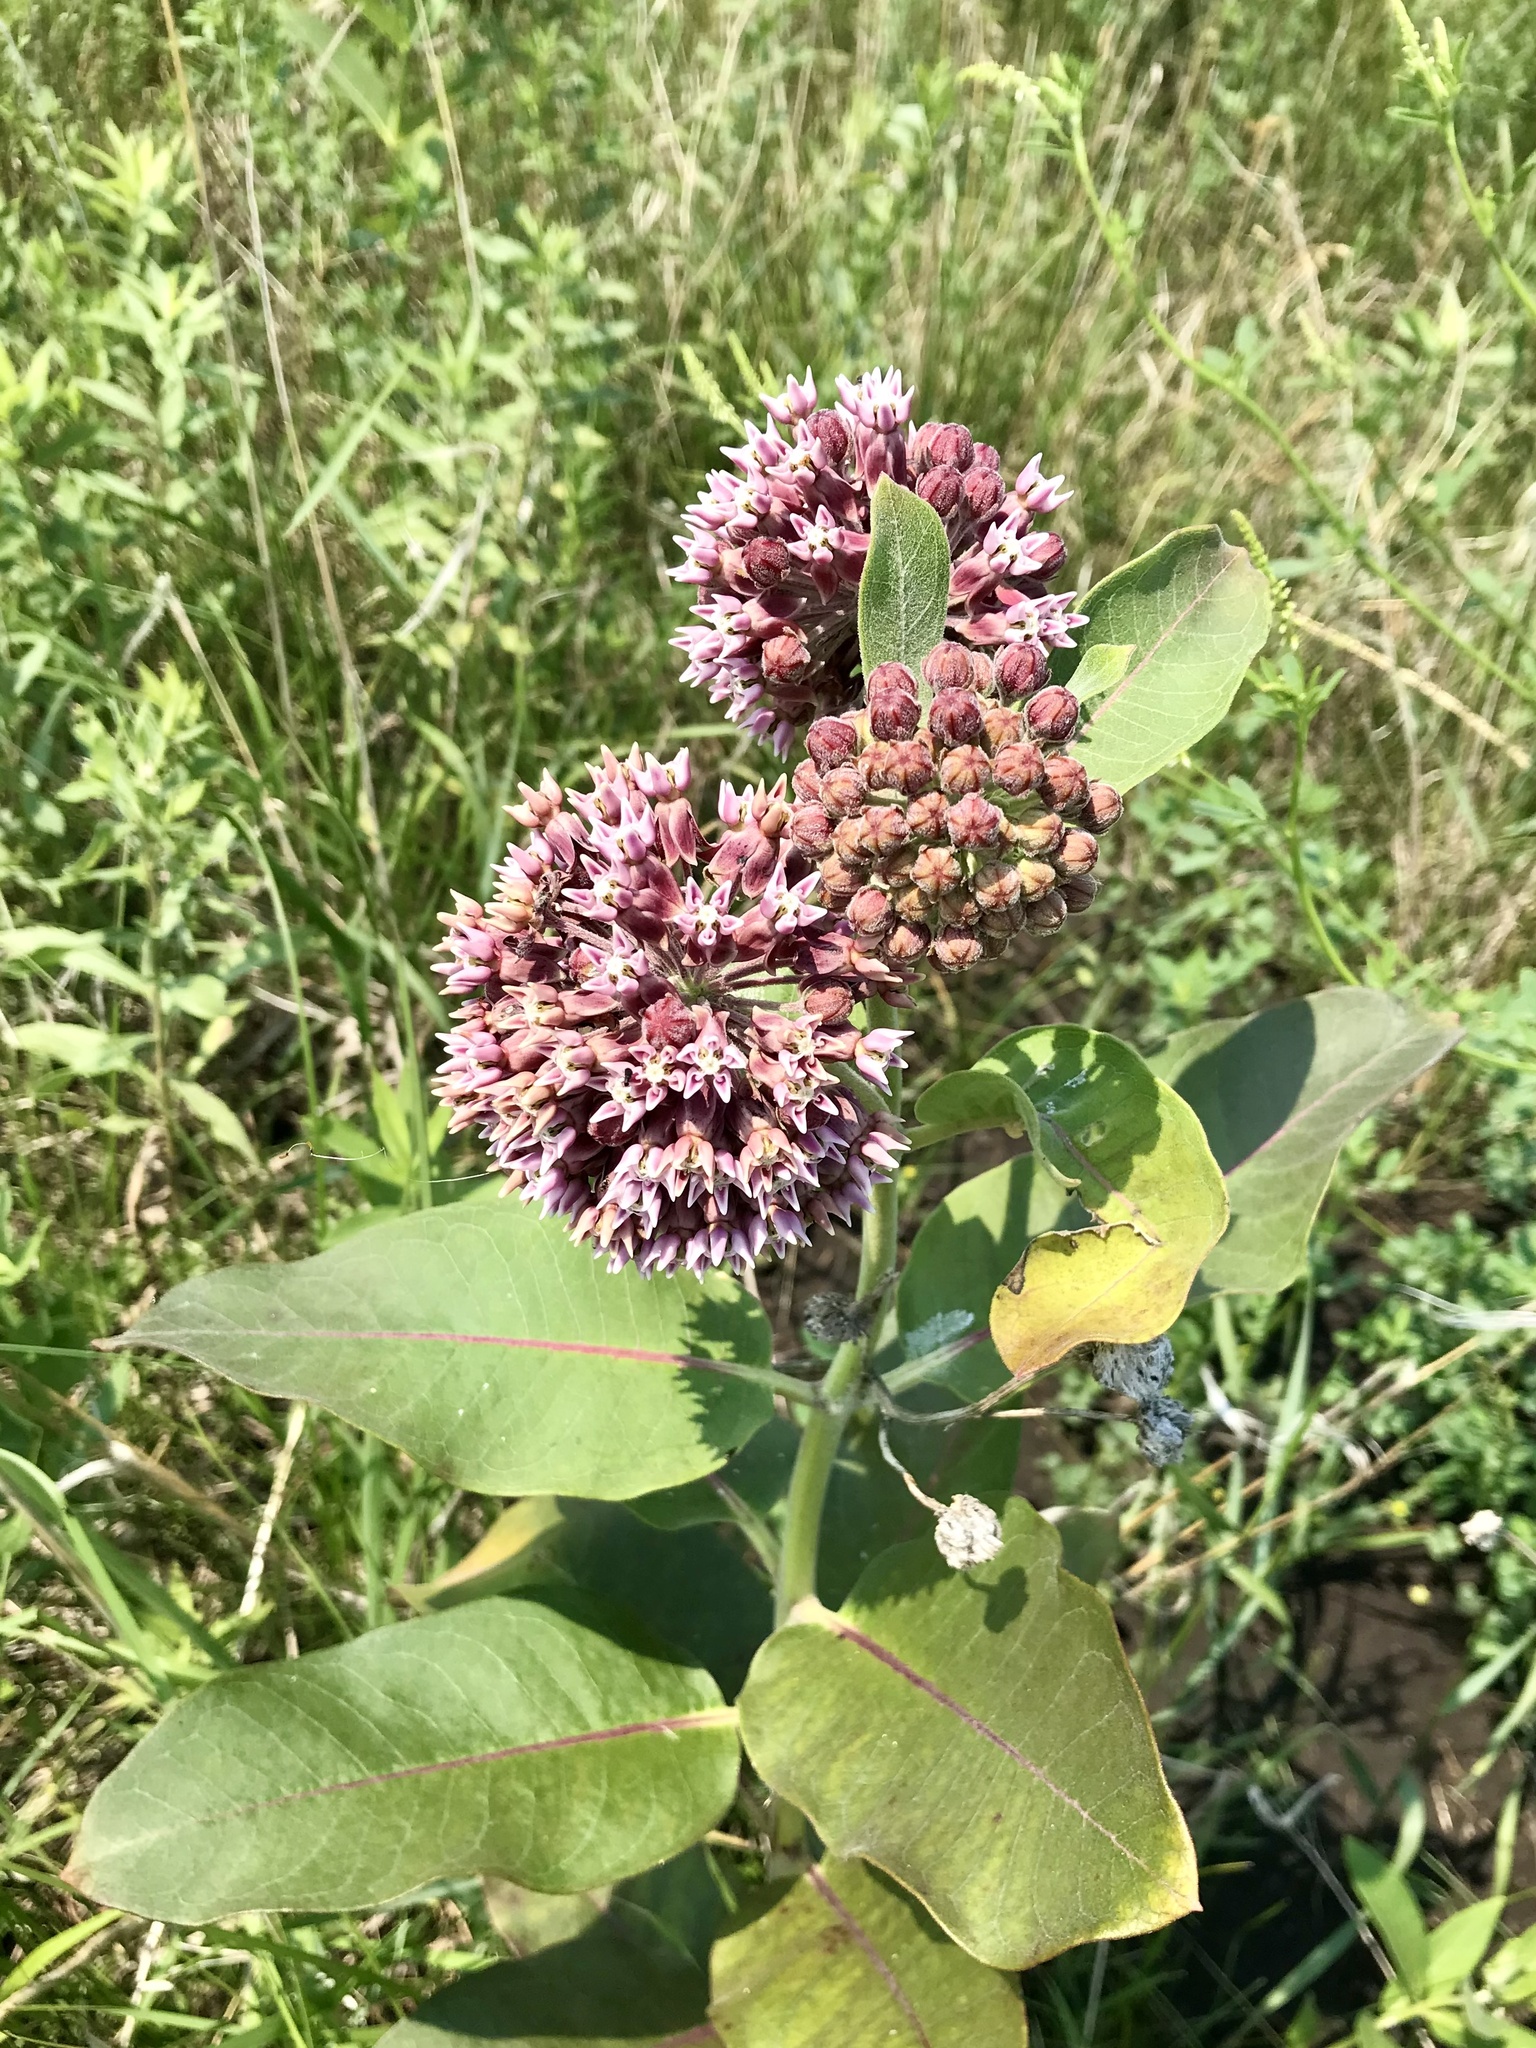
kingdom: Plantae
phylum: Tracheophyta
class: Magnoliopsida
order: Gentianales
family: Apocynaceae
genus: Asclepias
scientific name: Asclepias syriaca
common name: Common milkweed
